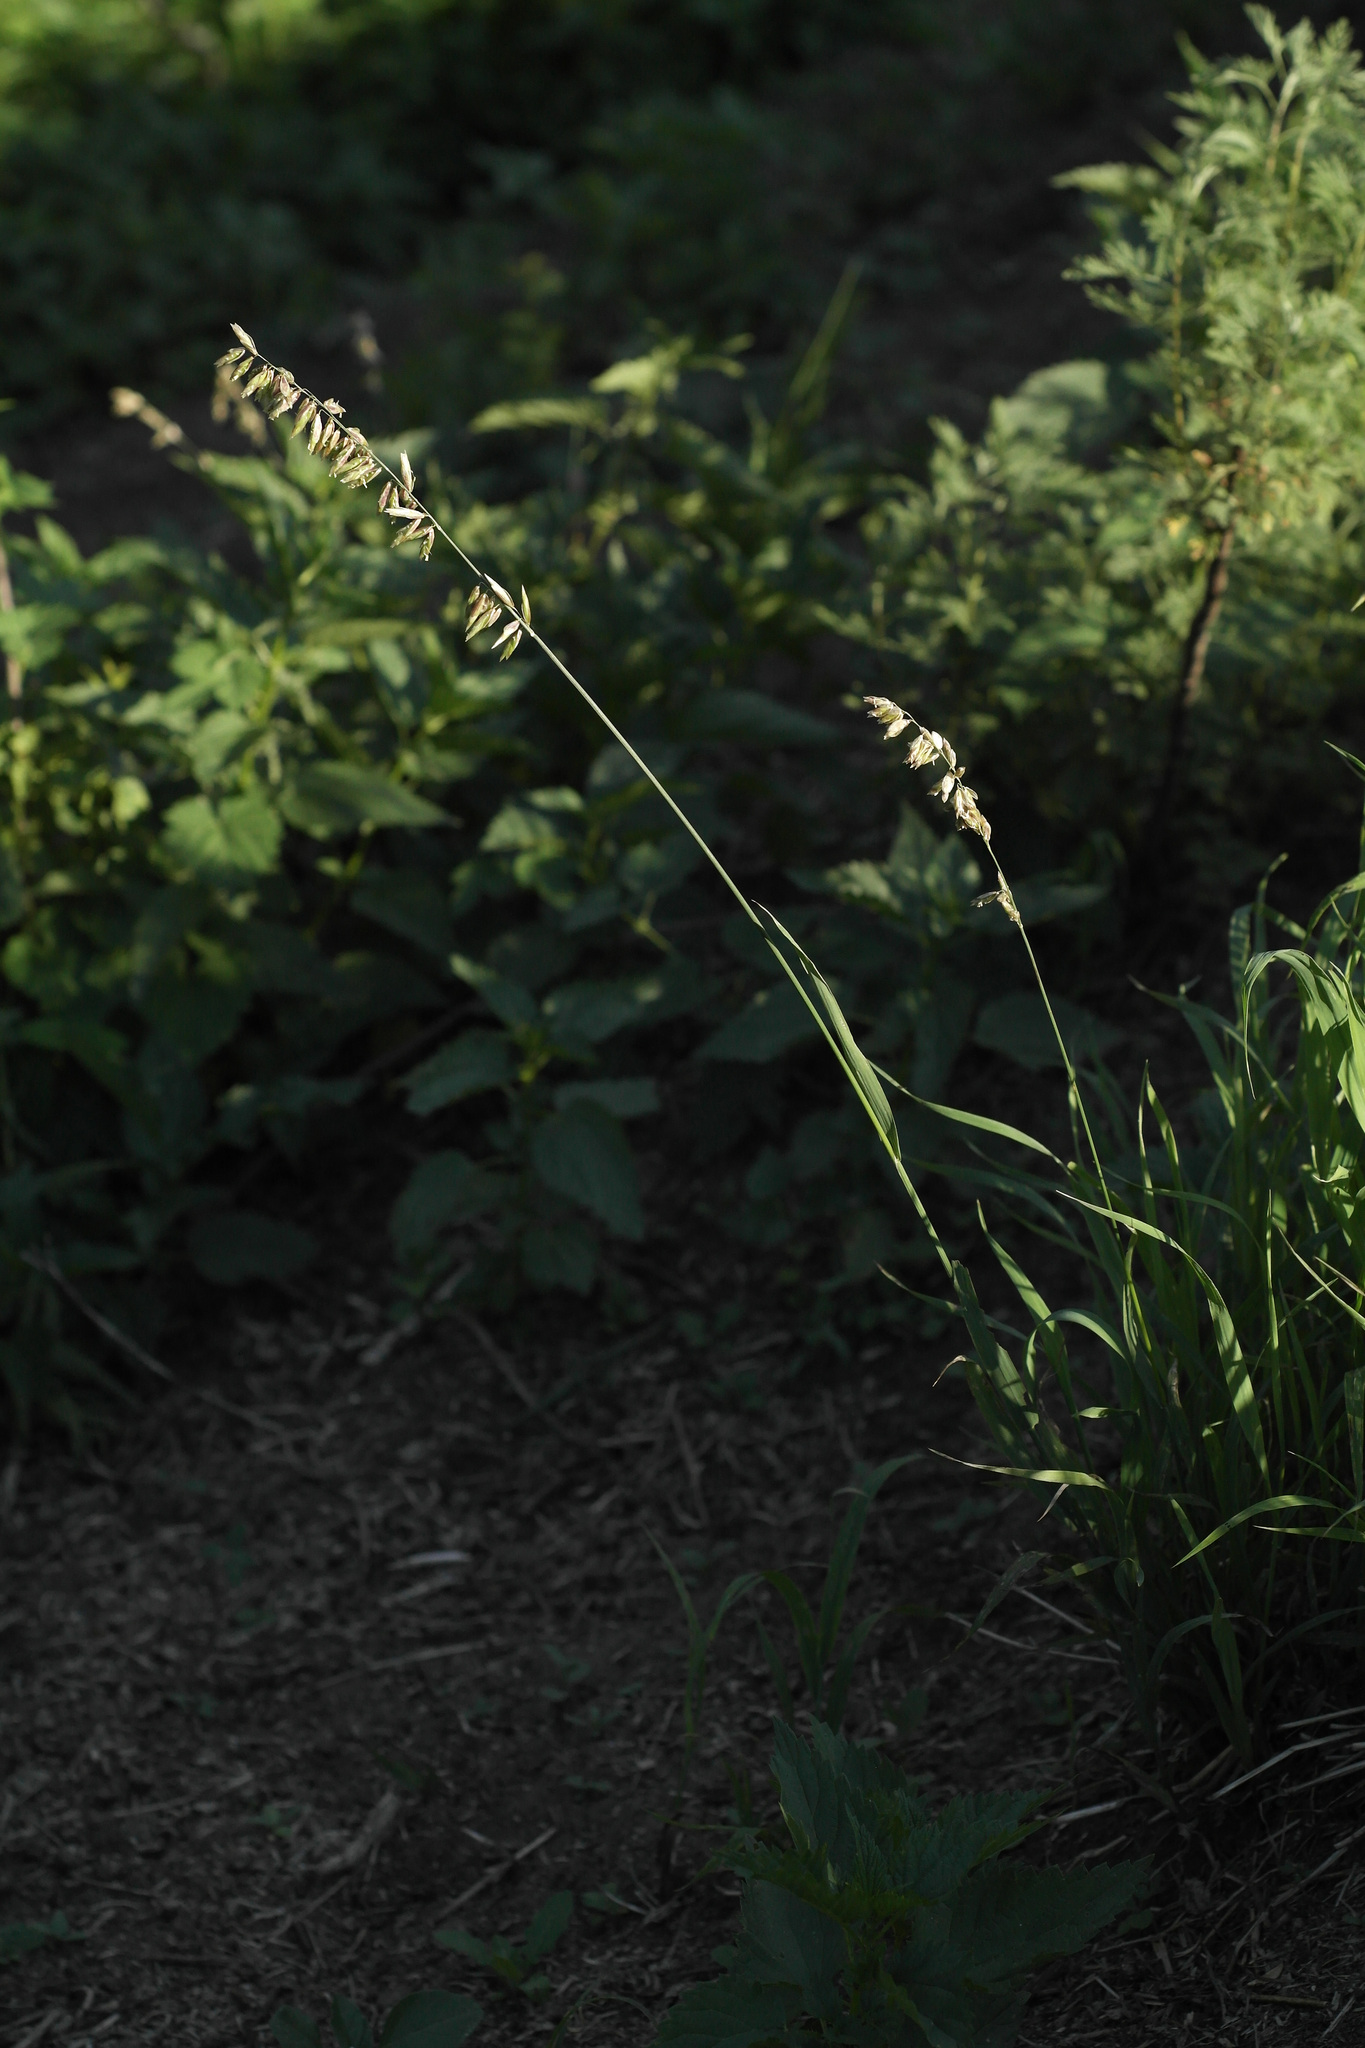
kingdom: Plantae
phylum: Tracheophyta
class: Liliopsida
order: Poales
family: Poaceae
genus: Melica
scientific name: Melica altissima
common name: Siberian melicgrass
